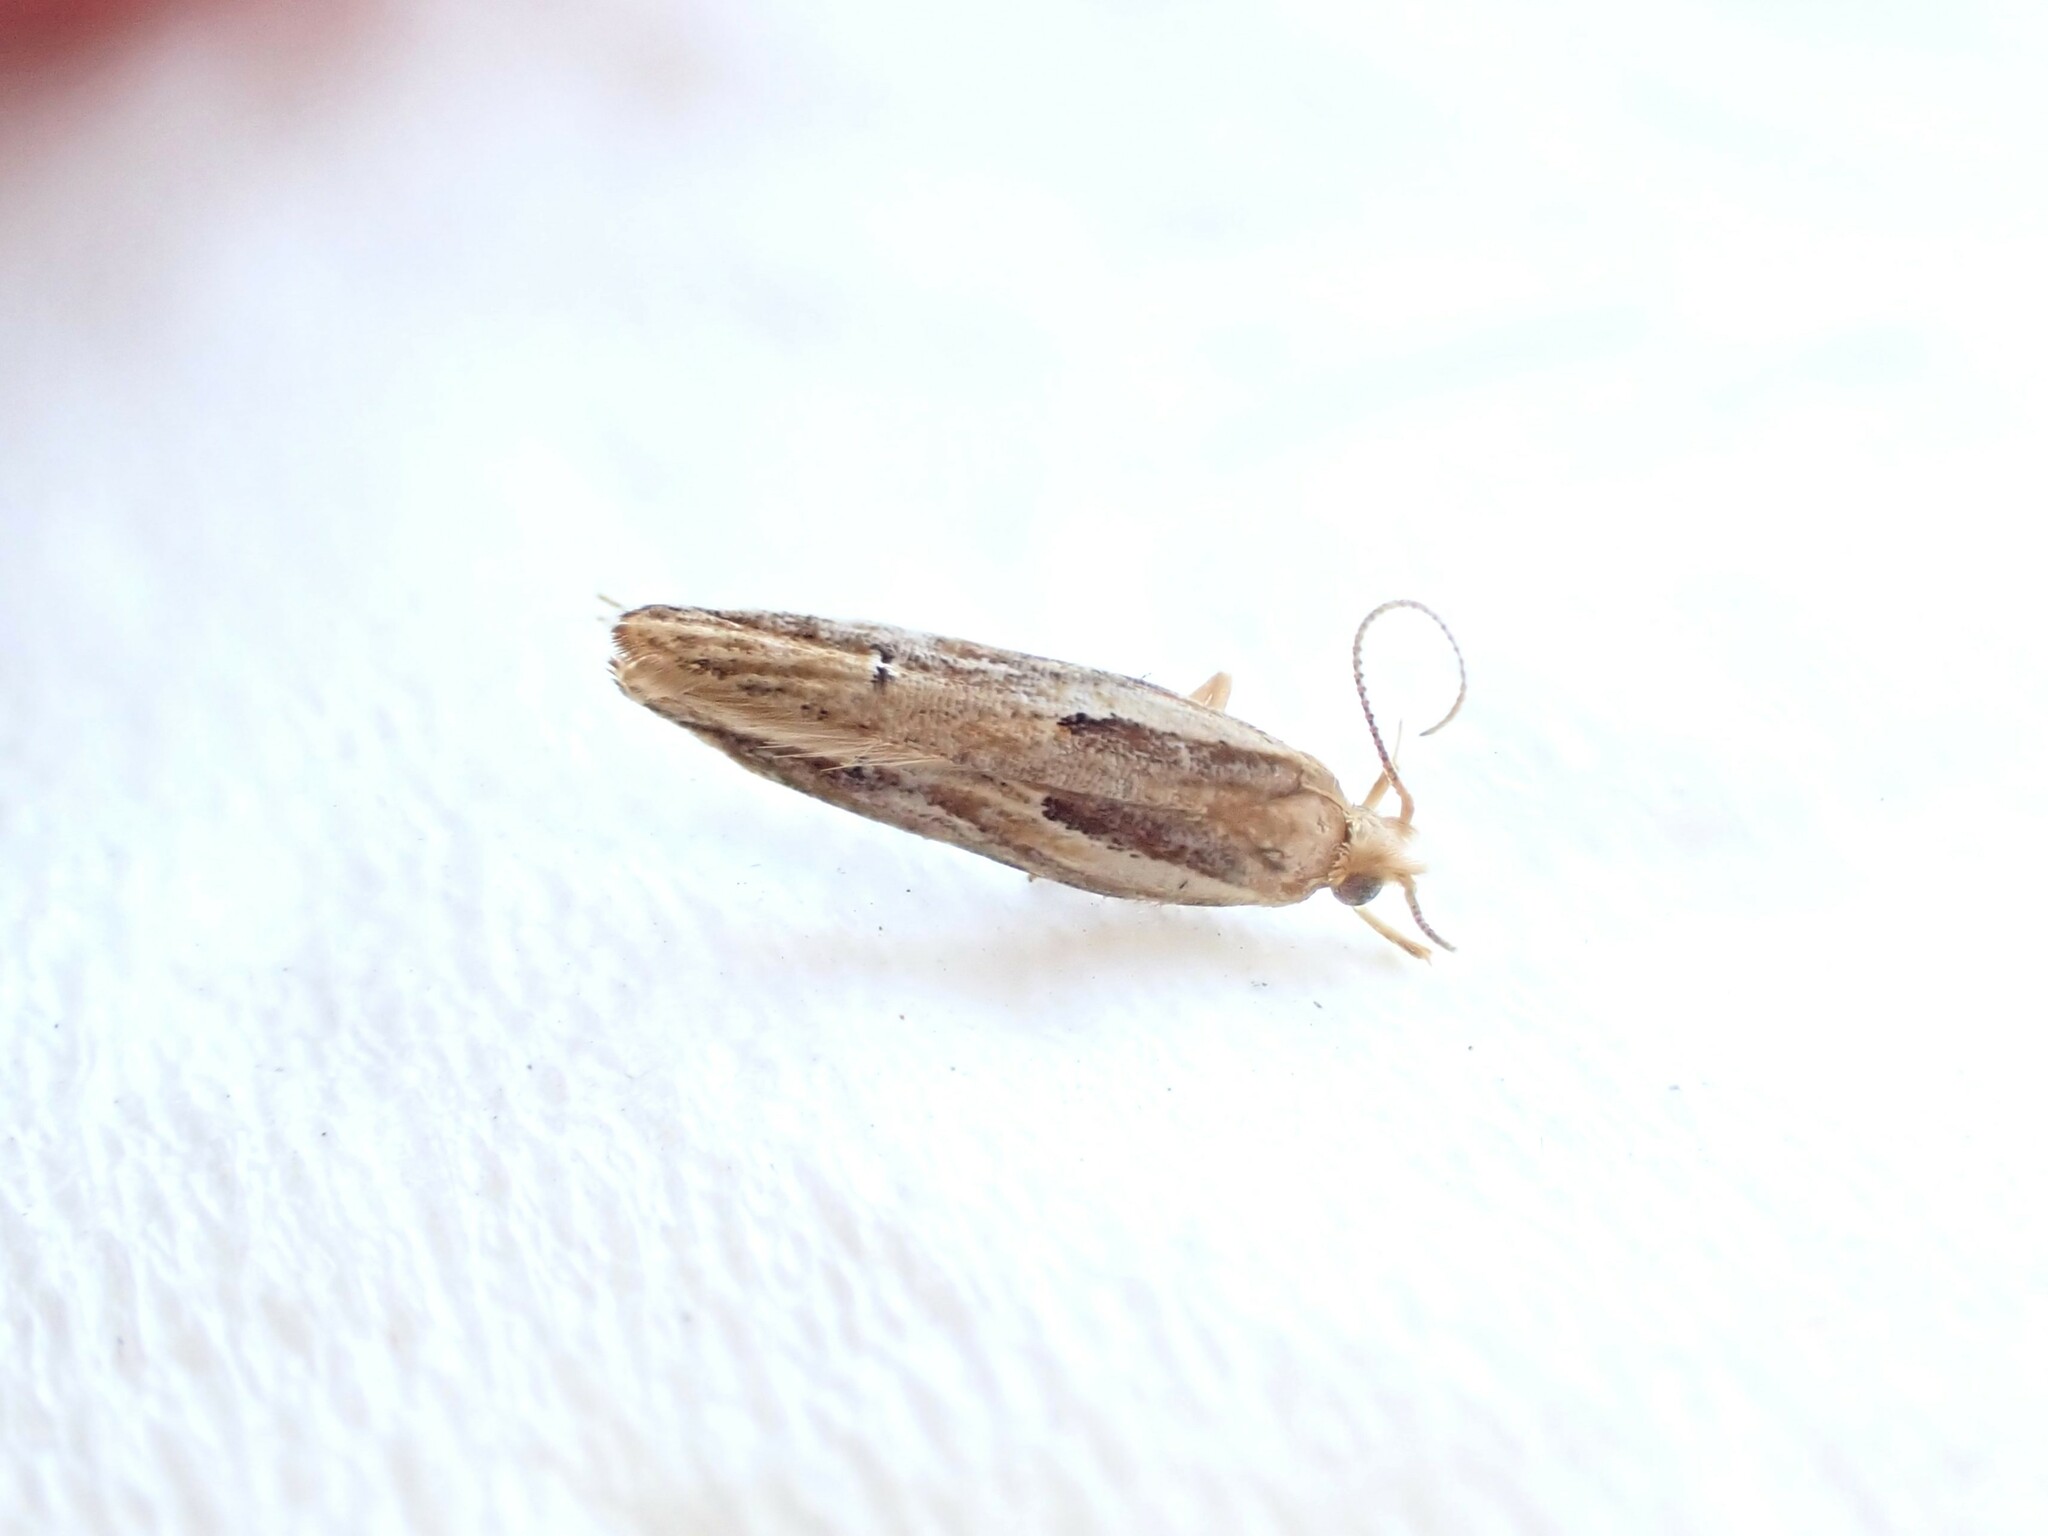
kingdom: Animalia
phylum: Arthropoda
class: Insecta
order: Lepidoptera
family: Depressariidae
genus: Eutorna
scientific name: Eutorna symmorpha
